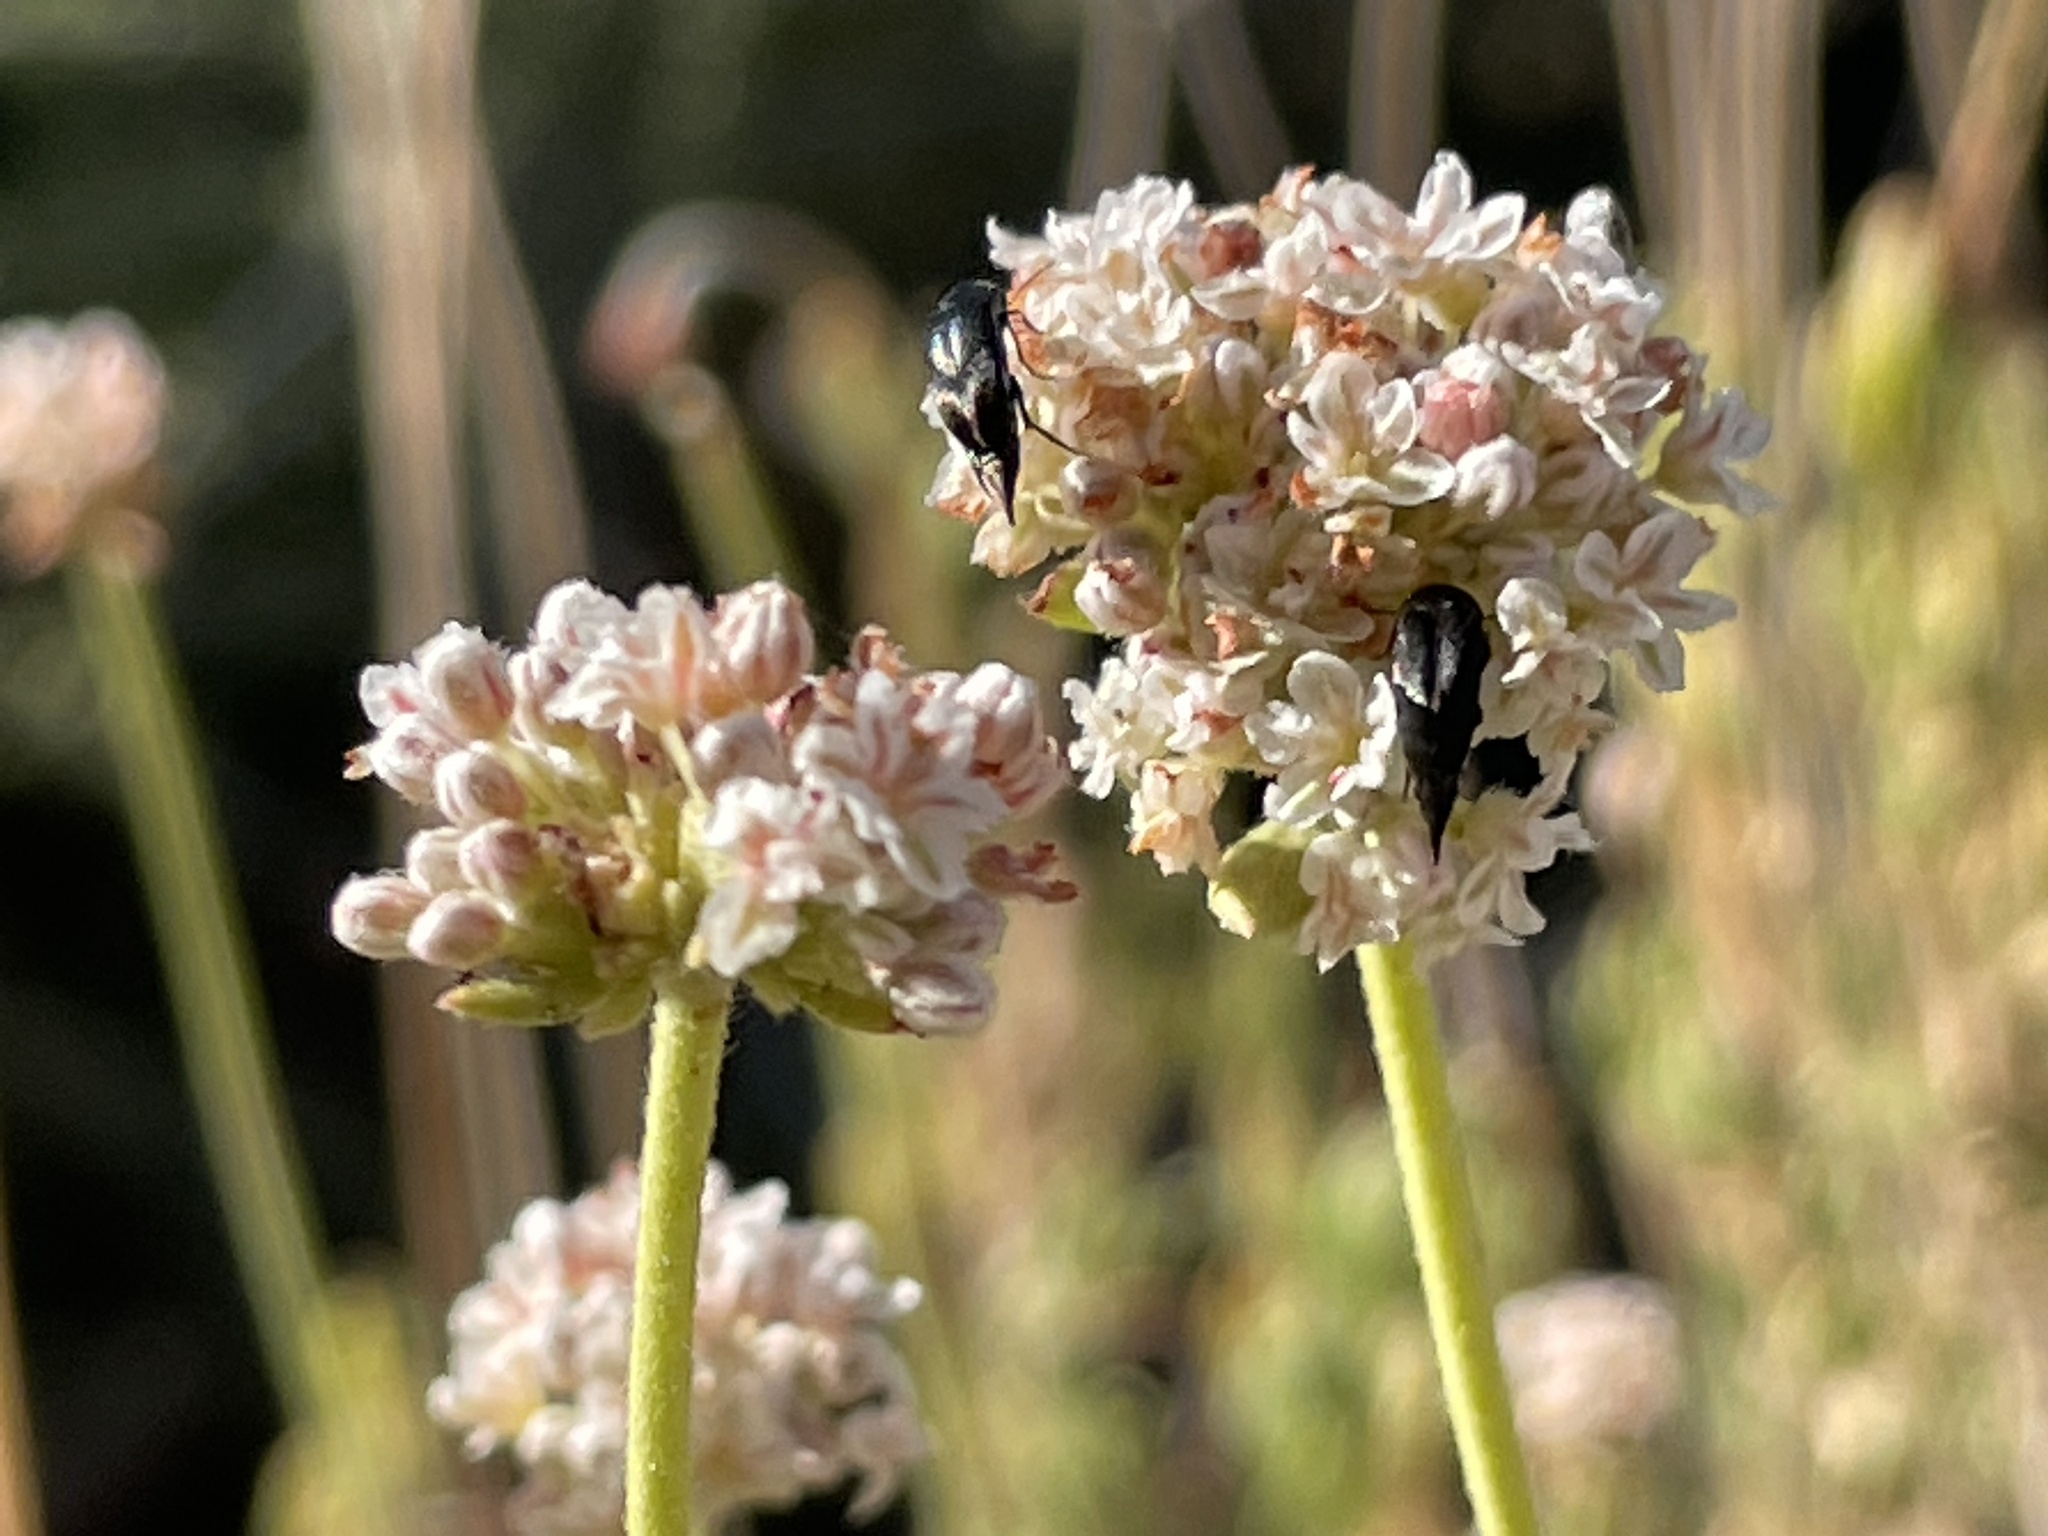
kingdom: Plantae
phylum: Tracheophyta
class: Magnoliopsida
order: Caryophyllales
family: Polygonaceae
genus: Eriogonum
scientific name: Eriogonum fasciculatum
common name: California wild buckwheat
